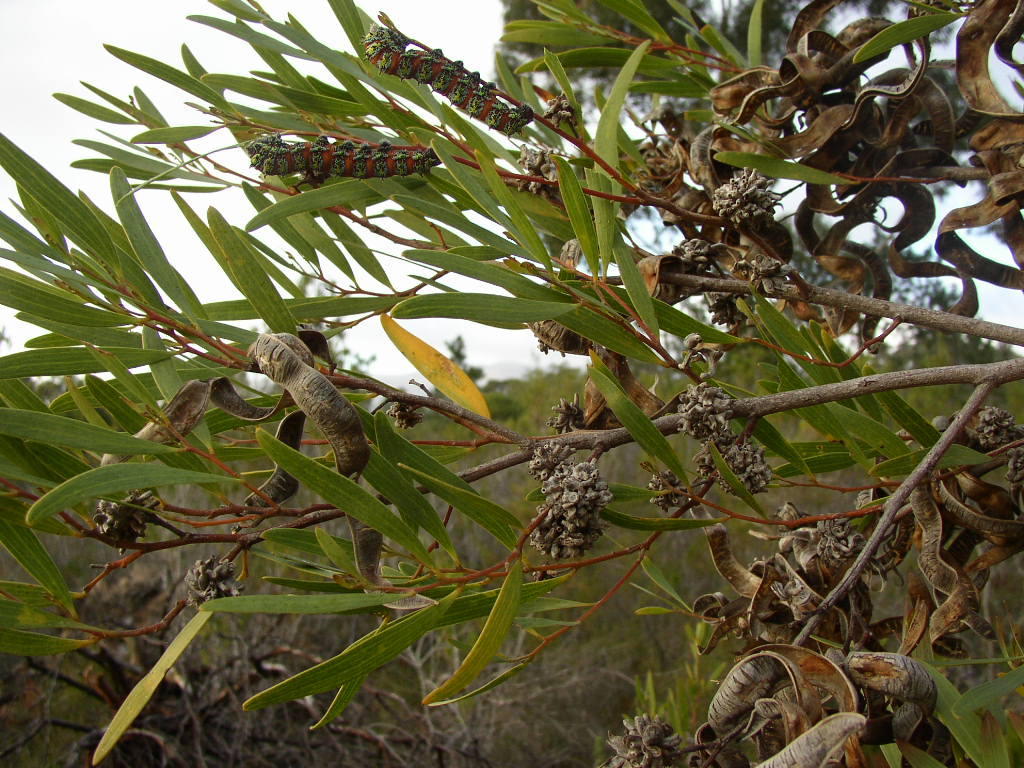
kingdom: Animalia
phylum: Arthropoda
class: Insecta
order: Diptera
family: Cecidomyiidae
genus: Dasineura
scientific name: Dasineura dielsi
